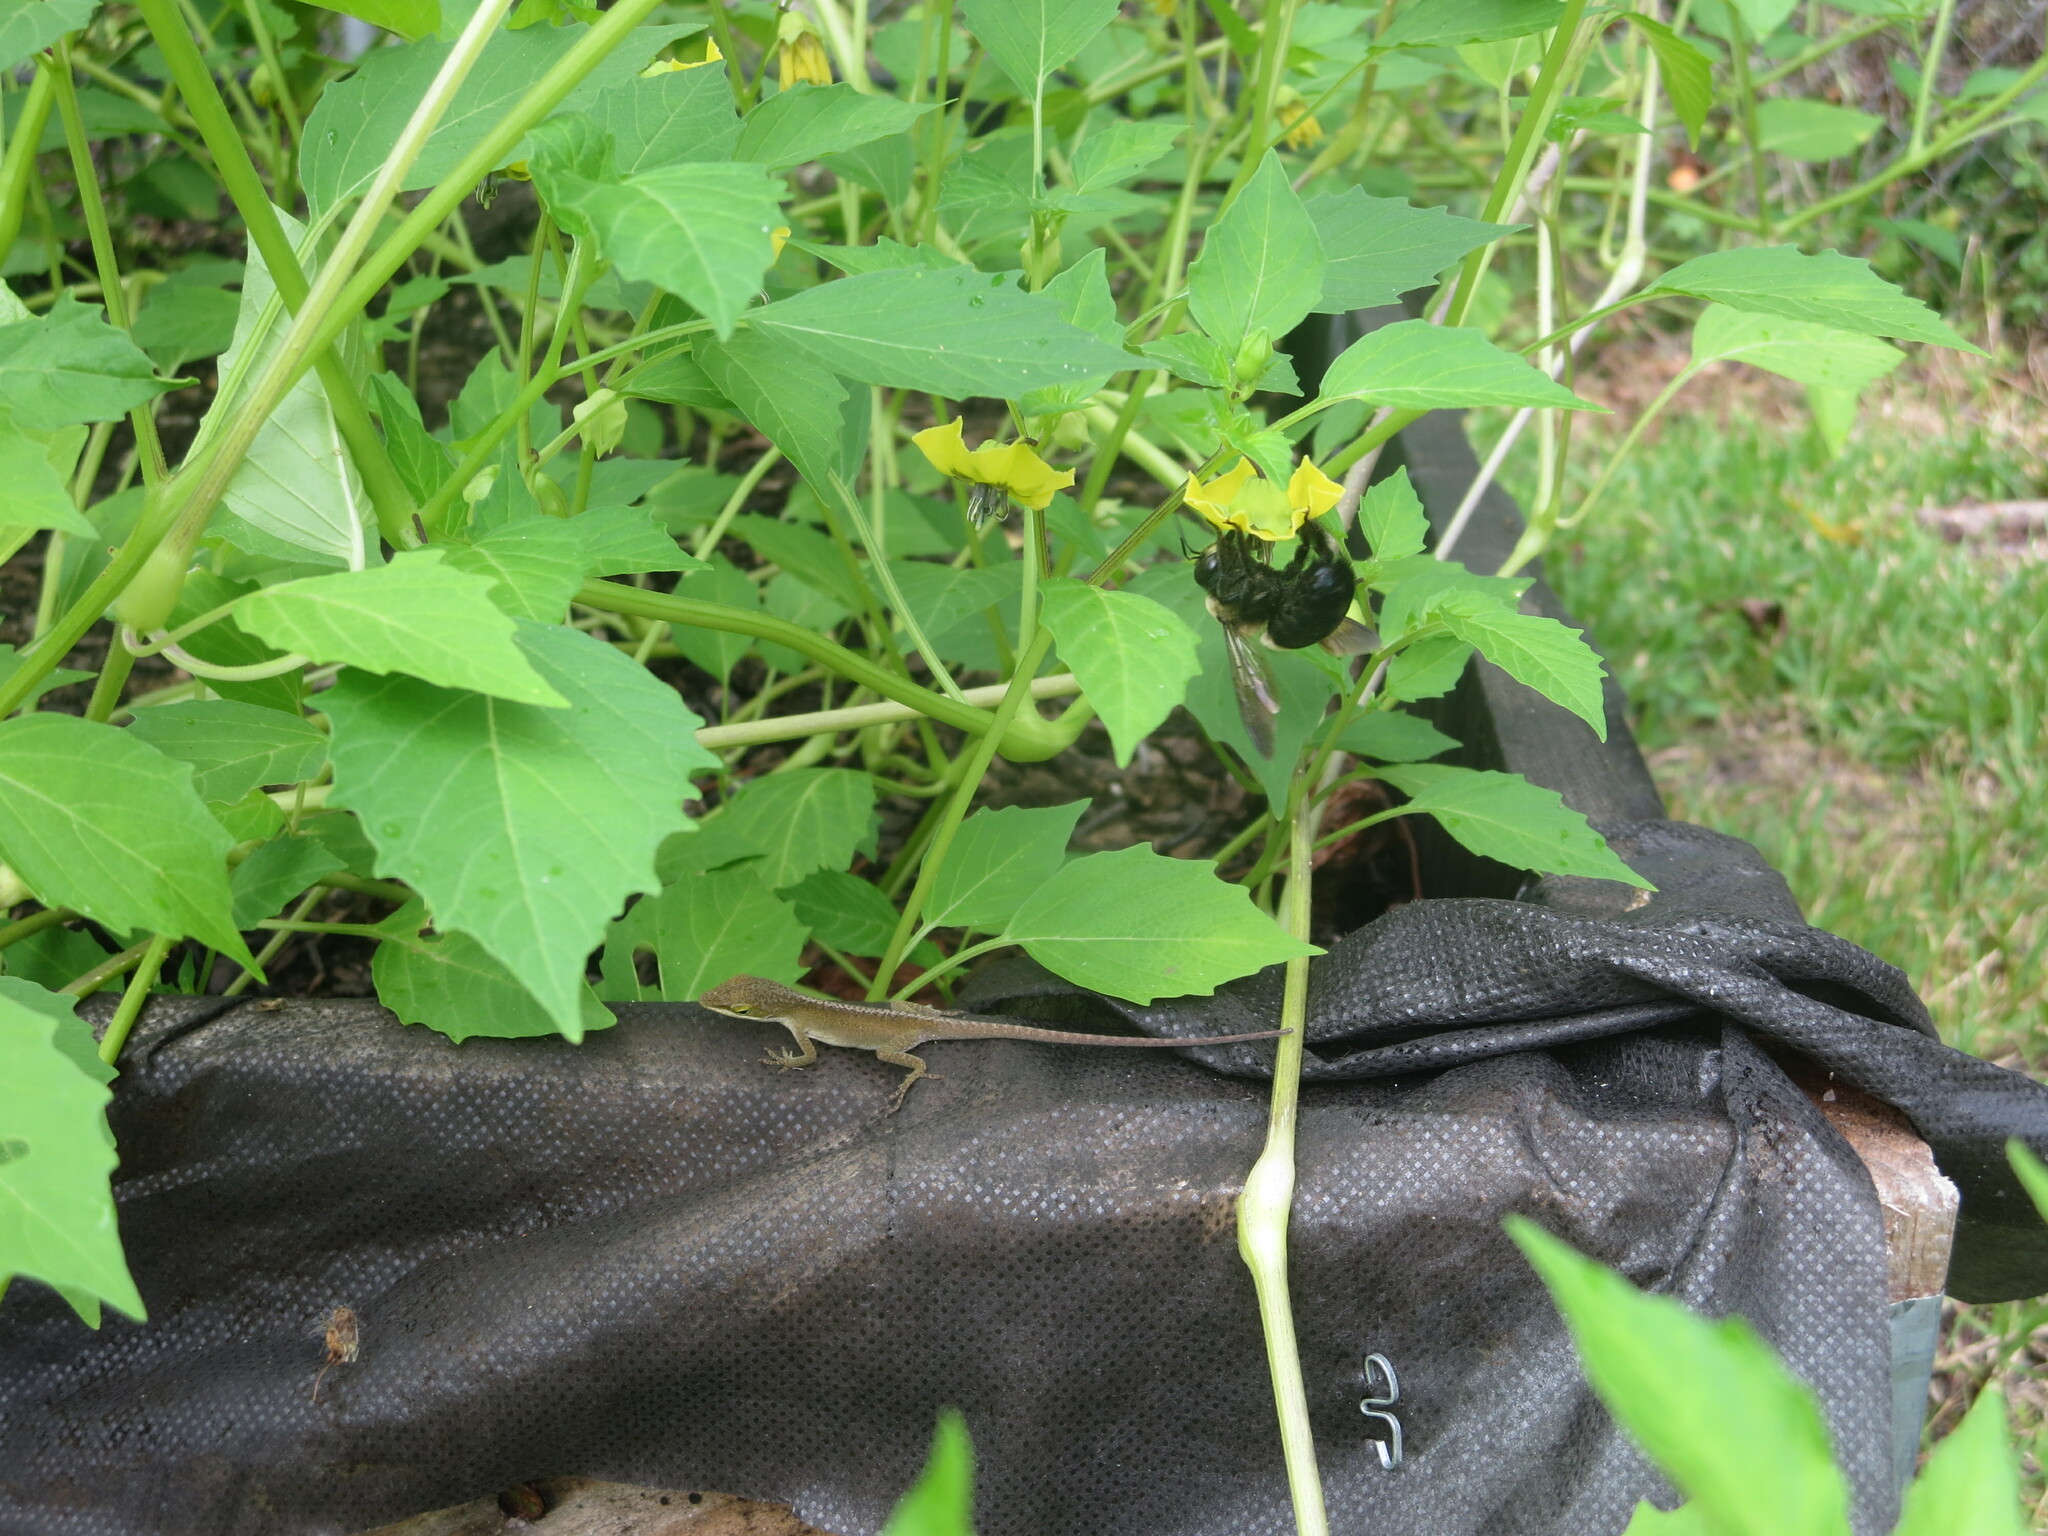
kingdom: Animalia
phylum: Chordata
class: Squamata
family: Dactyloidae
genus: Anolis
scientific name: Anolis carolinensis
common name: Green anole
